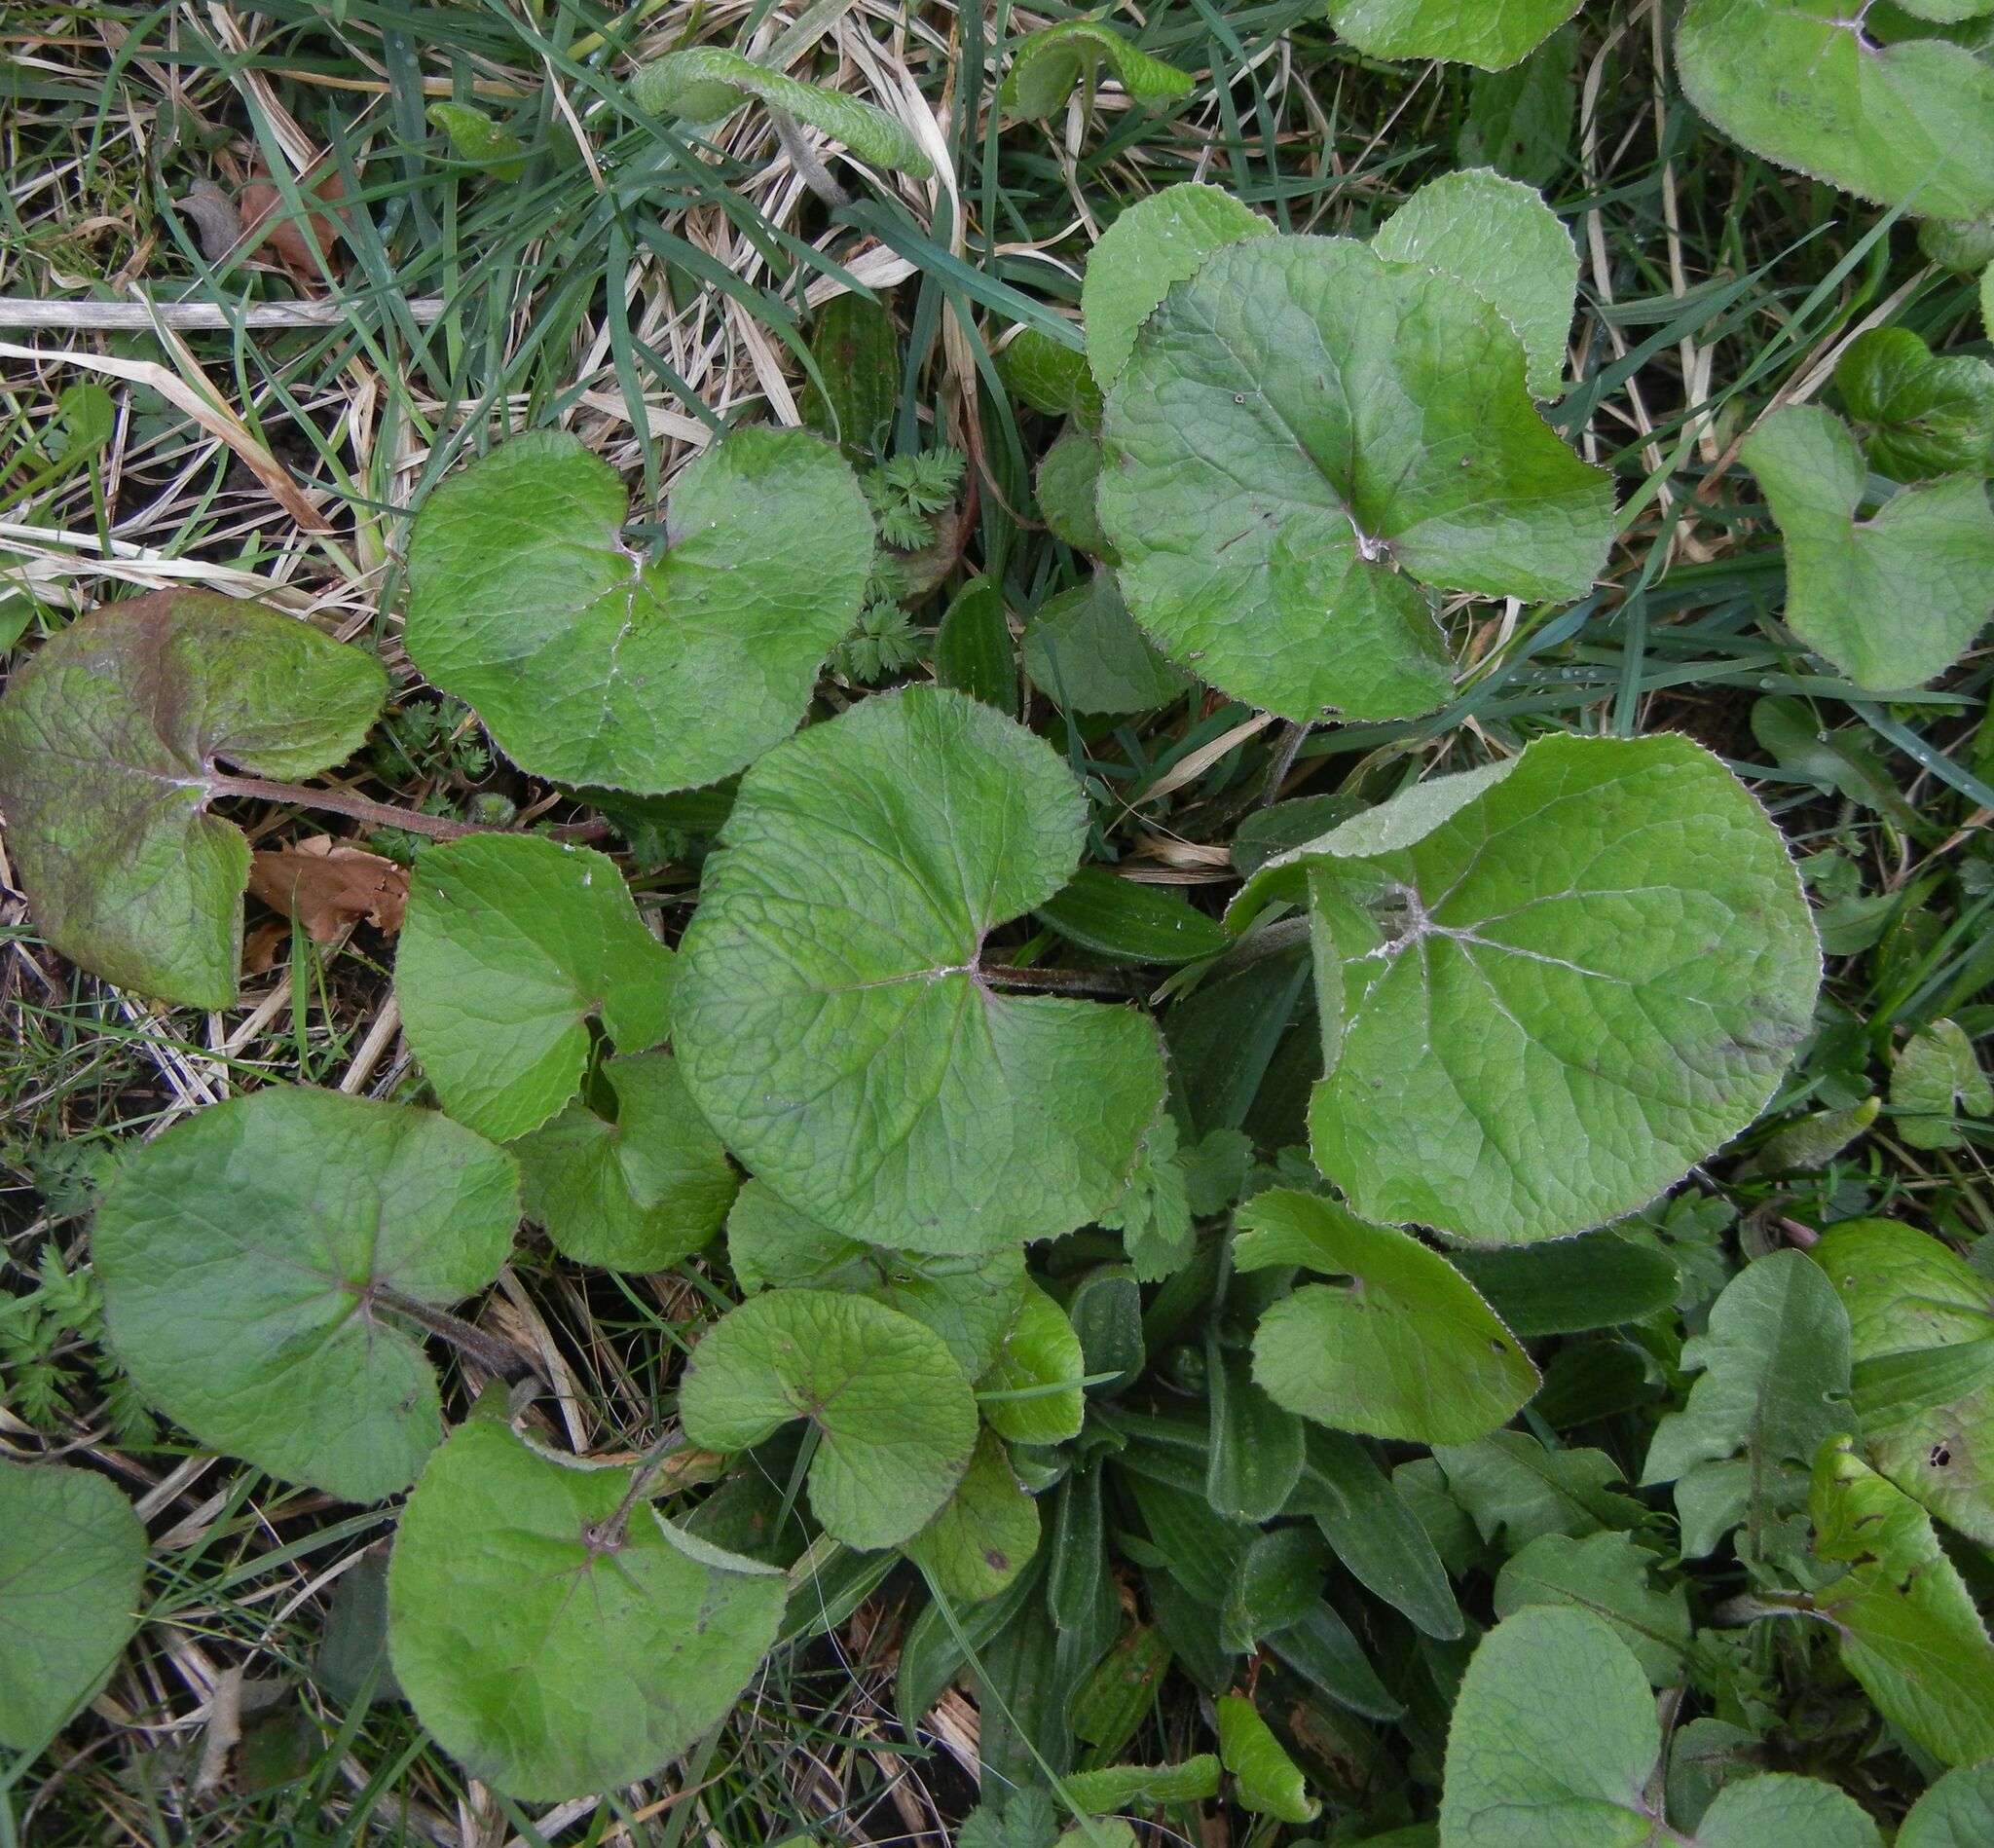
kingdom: Plantae
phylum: Tracheophyta
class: Magnoliopsida
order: Asterales
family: Asteraceae
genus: Petasites
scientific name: Petasites pyrenaicus
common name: Winter heliotrope
